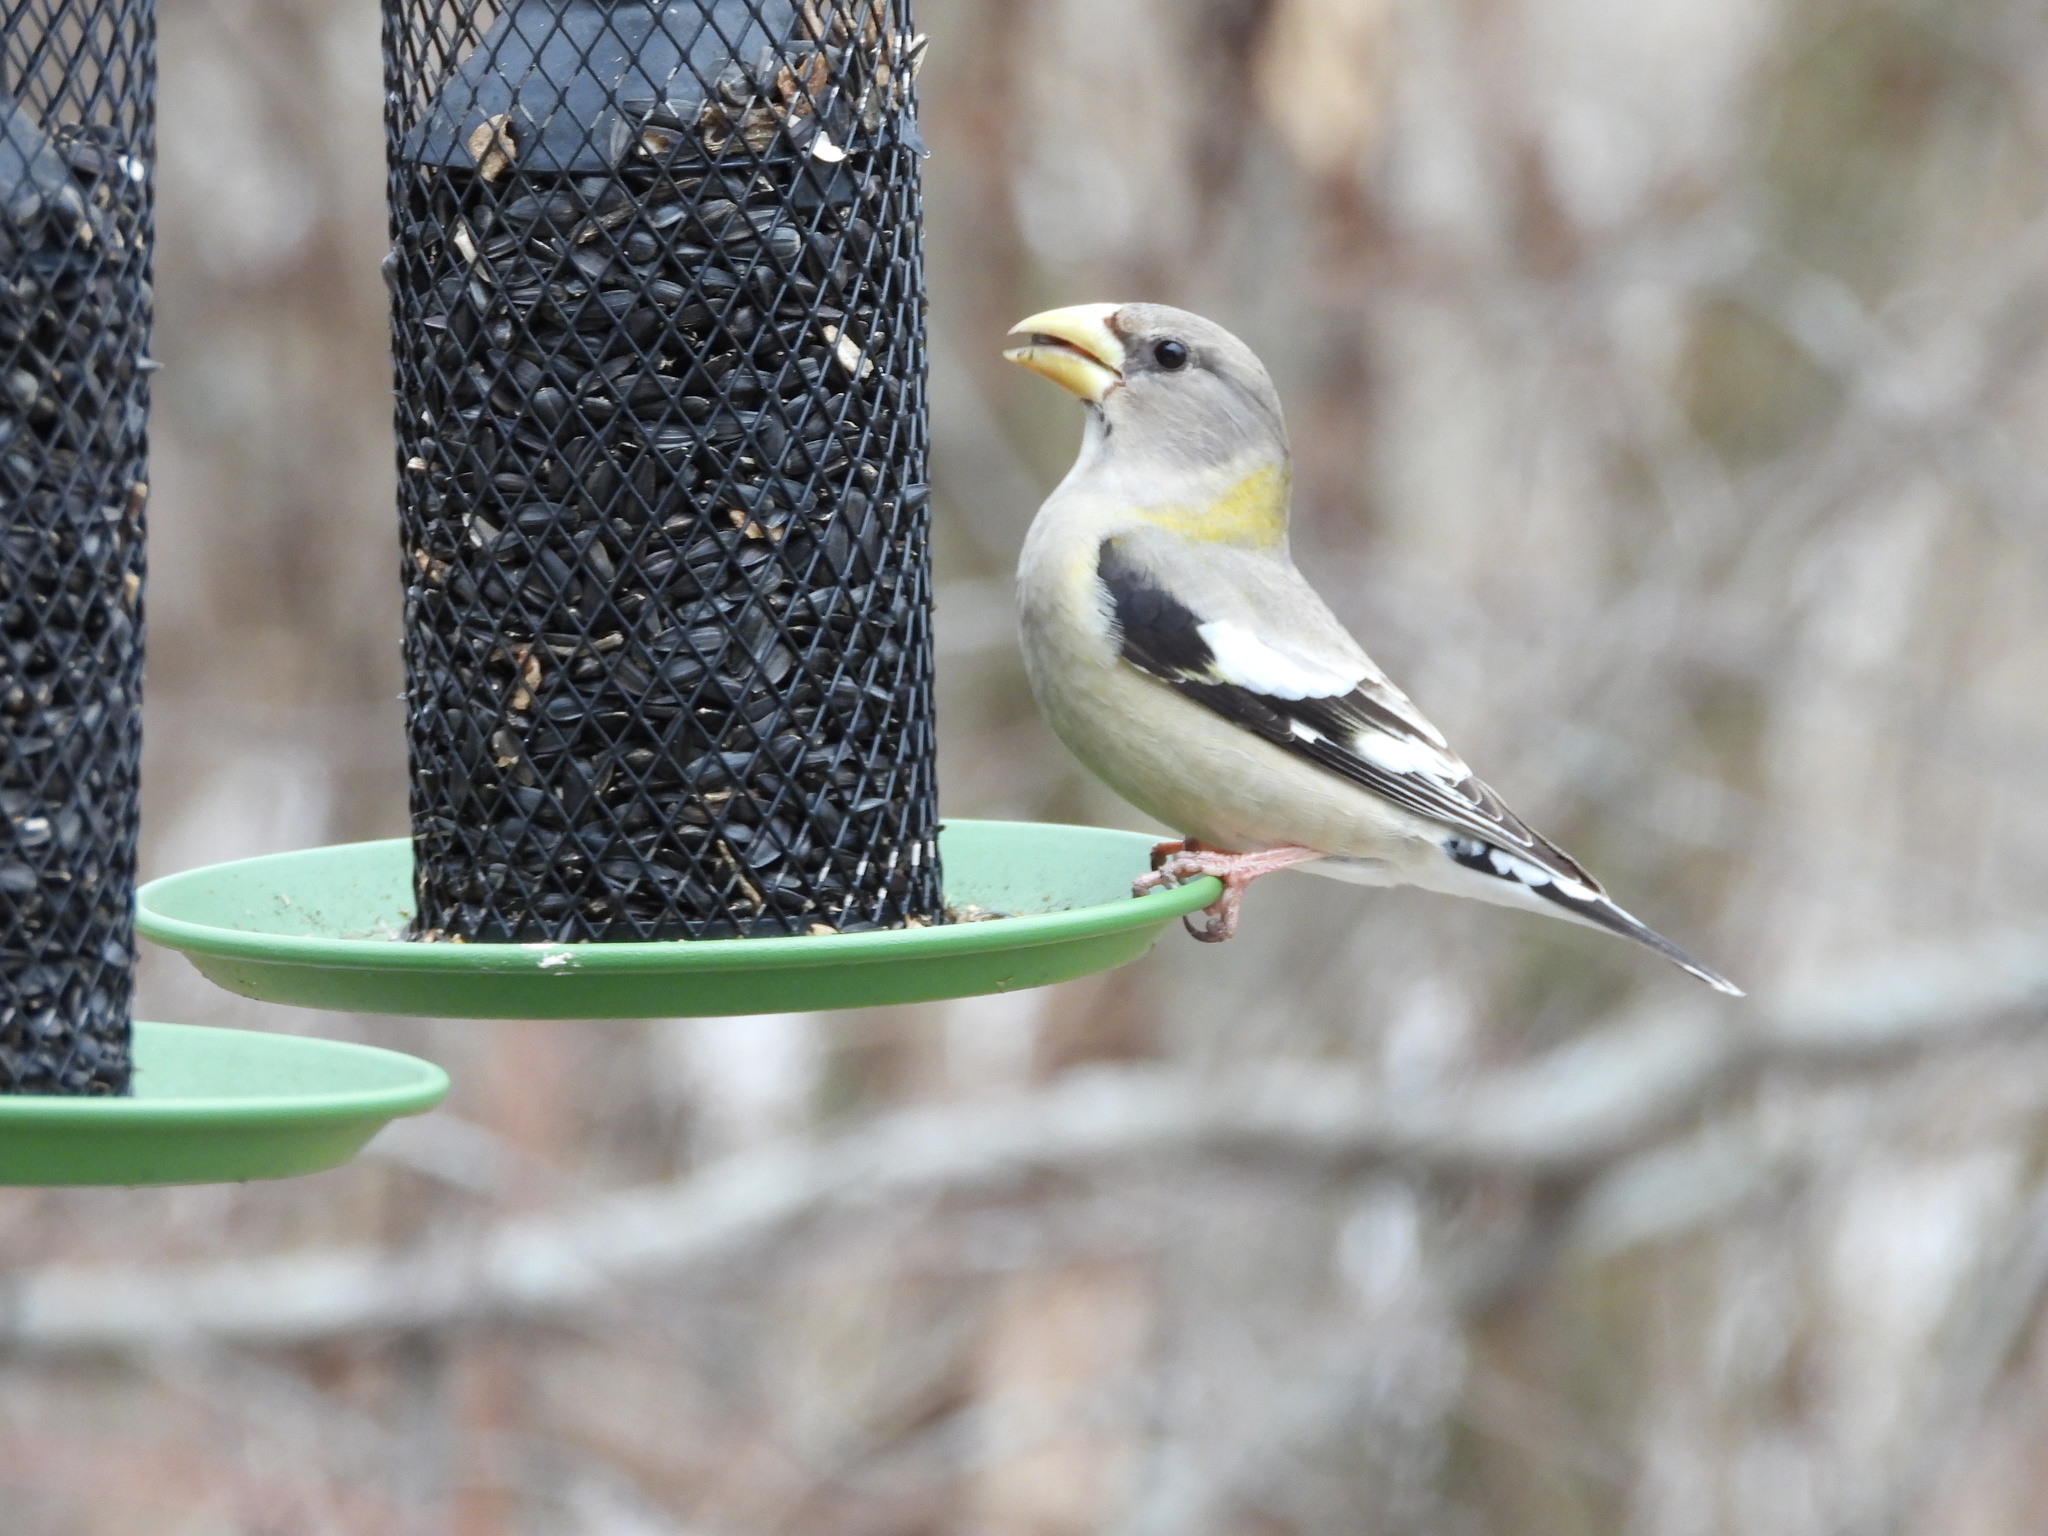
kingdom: Animalia
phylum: Chordata
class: Aves
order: Passeriformes
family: Fringillidae
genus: Hesperiphona
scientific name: Hesperiphona vespertina
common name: Evening grosbeak
